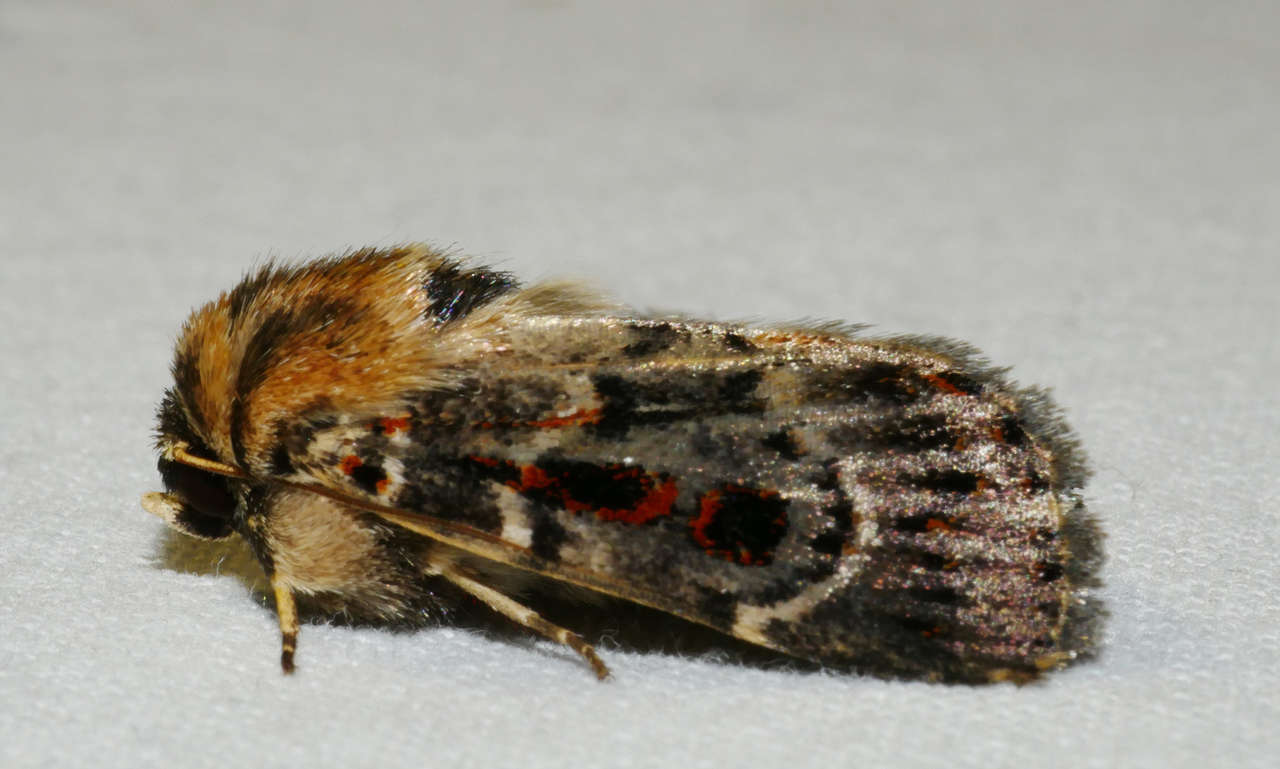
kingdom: Animalia
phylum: Arthropoda
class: Insecta
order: Lepidoptera
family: Noctuidae
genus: Proteuxoa
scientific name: Proteuxoa sanguinipuncta
